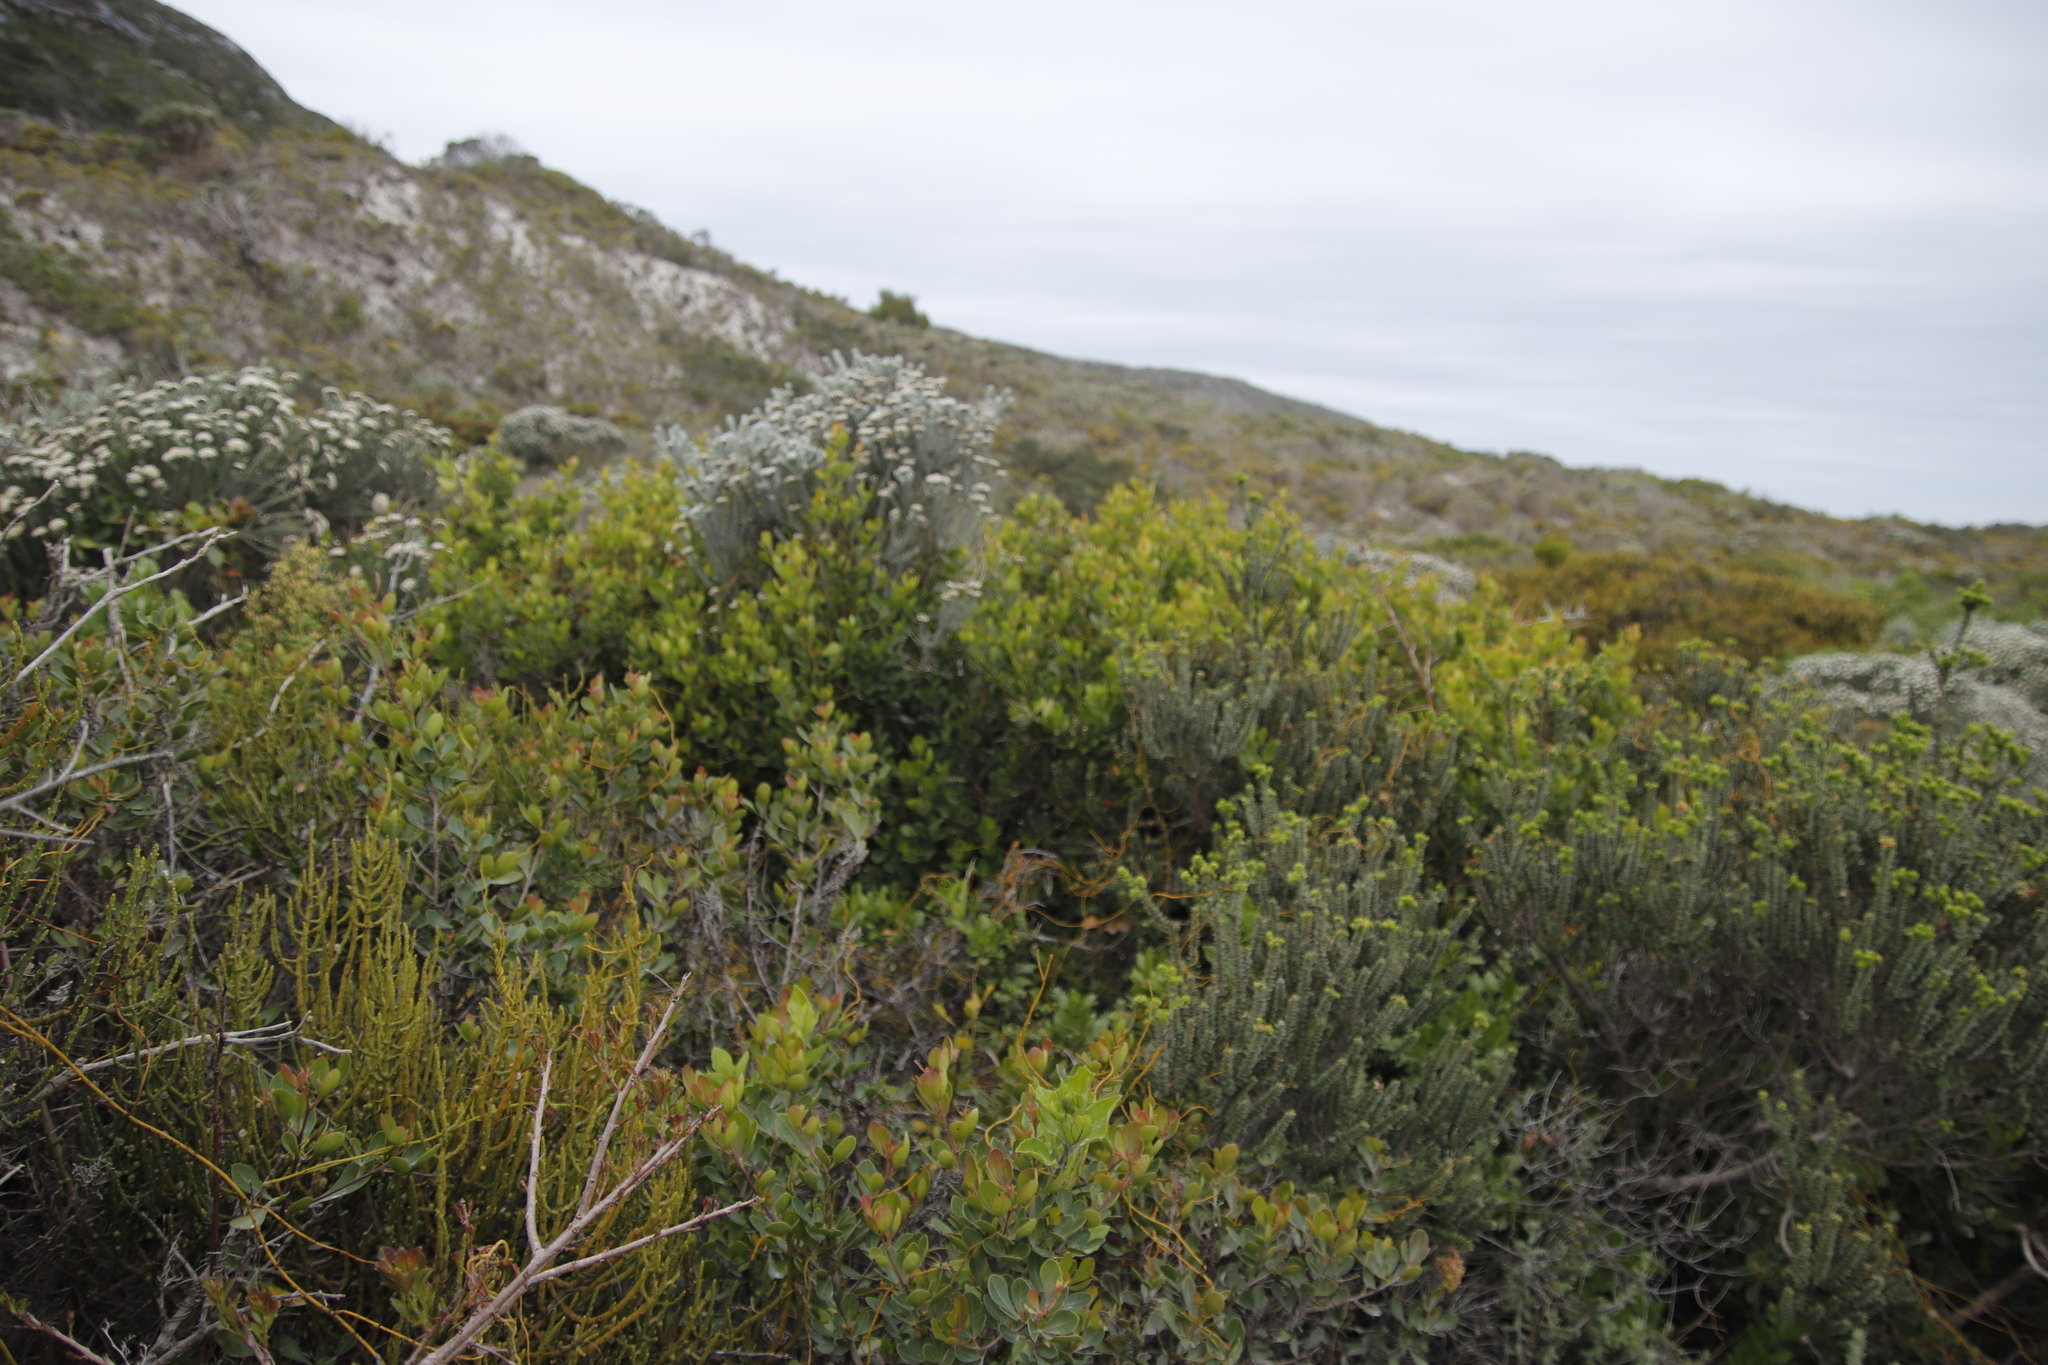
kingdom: Plantae
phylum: Tracheophyta
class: Magnoliopsida
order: Sapindales
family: Anacardiaceae
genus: Searsia
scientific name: Searsia lucida
